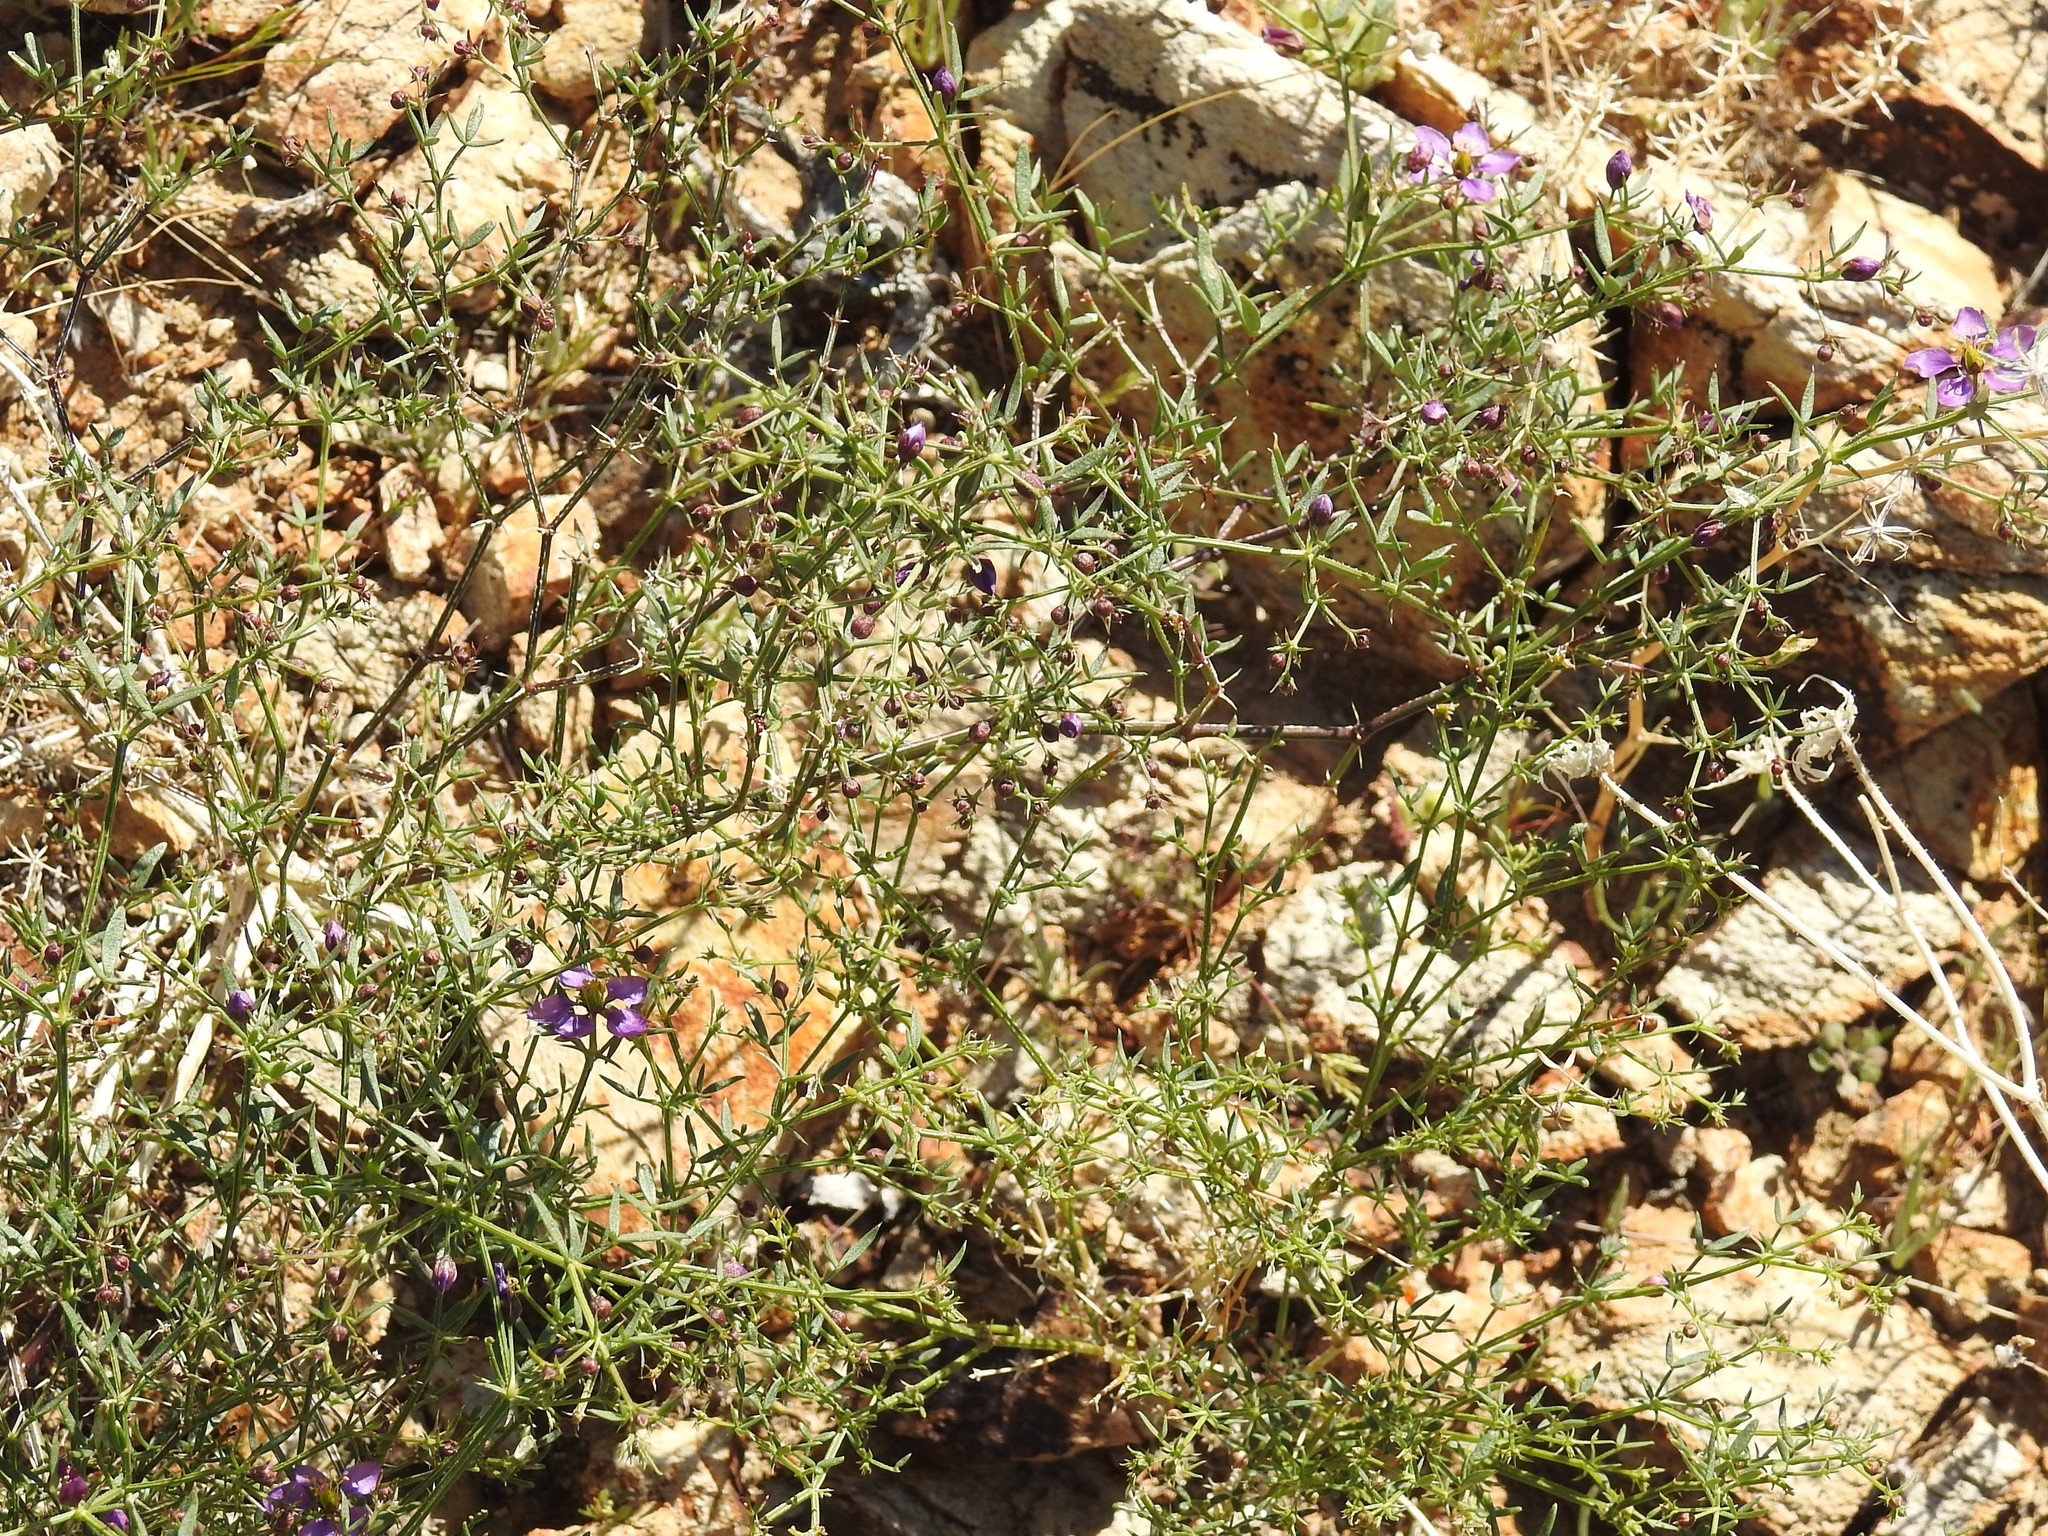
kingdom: Plantae
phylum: Tracheophyta
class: Magnoliopsida
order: Zygophyllales
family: Zygophyllaceae
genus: Fagonia
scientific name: Fagonia laevis
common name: California fagonbush
